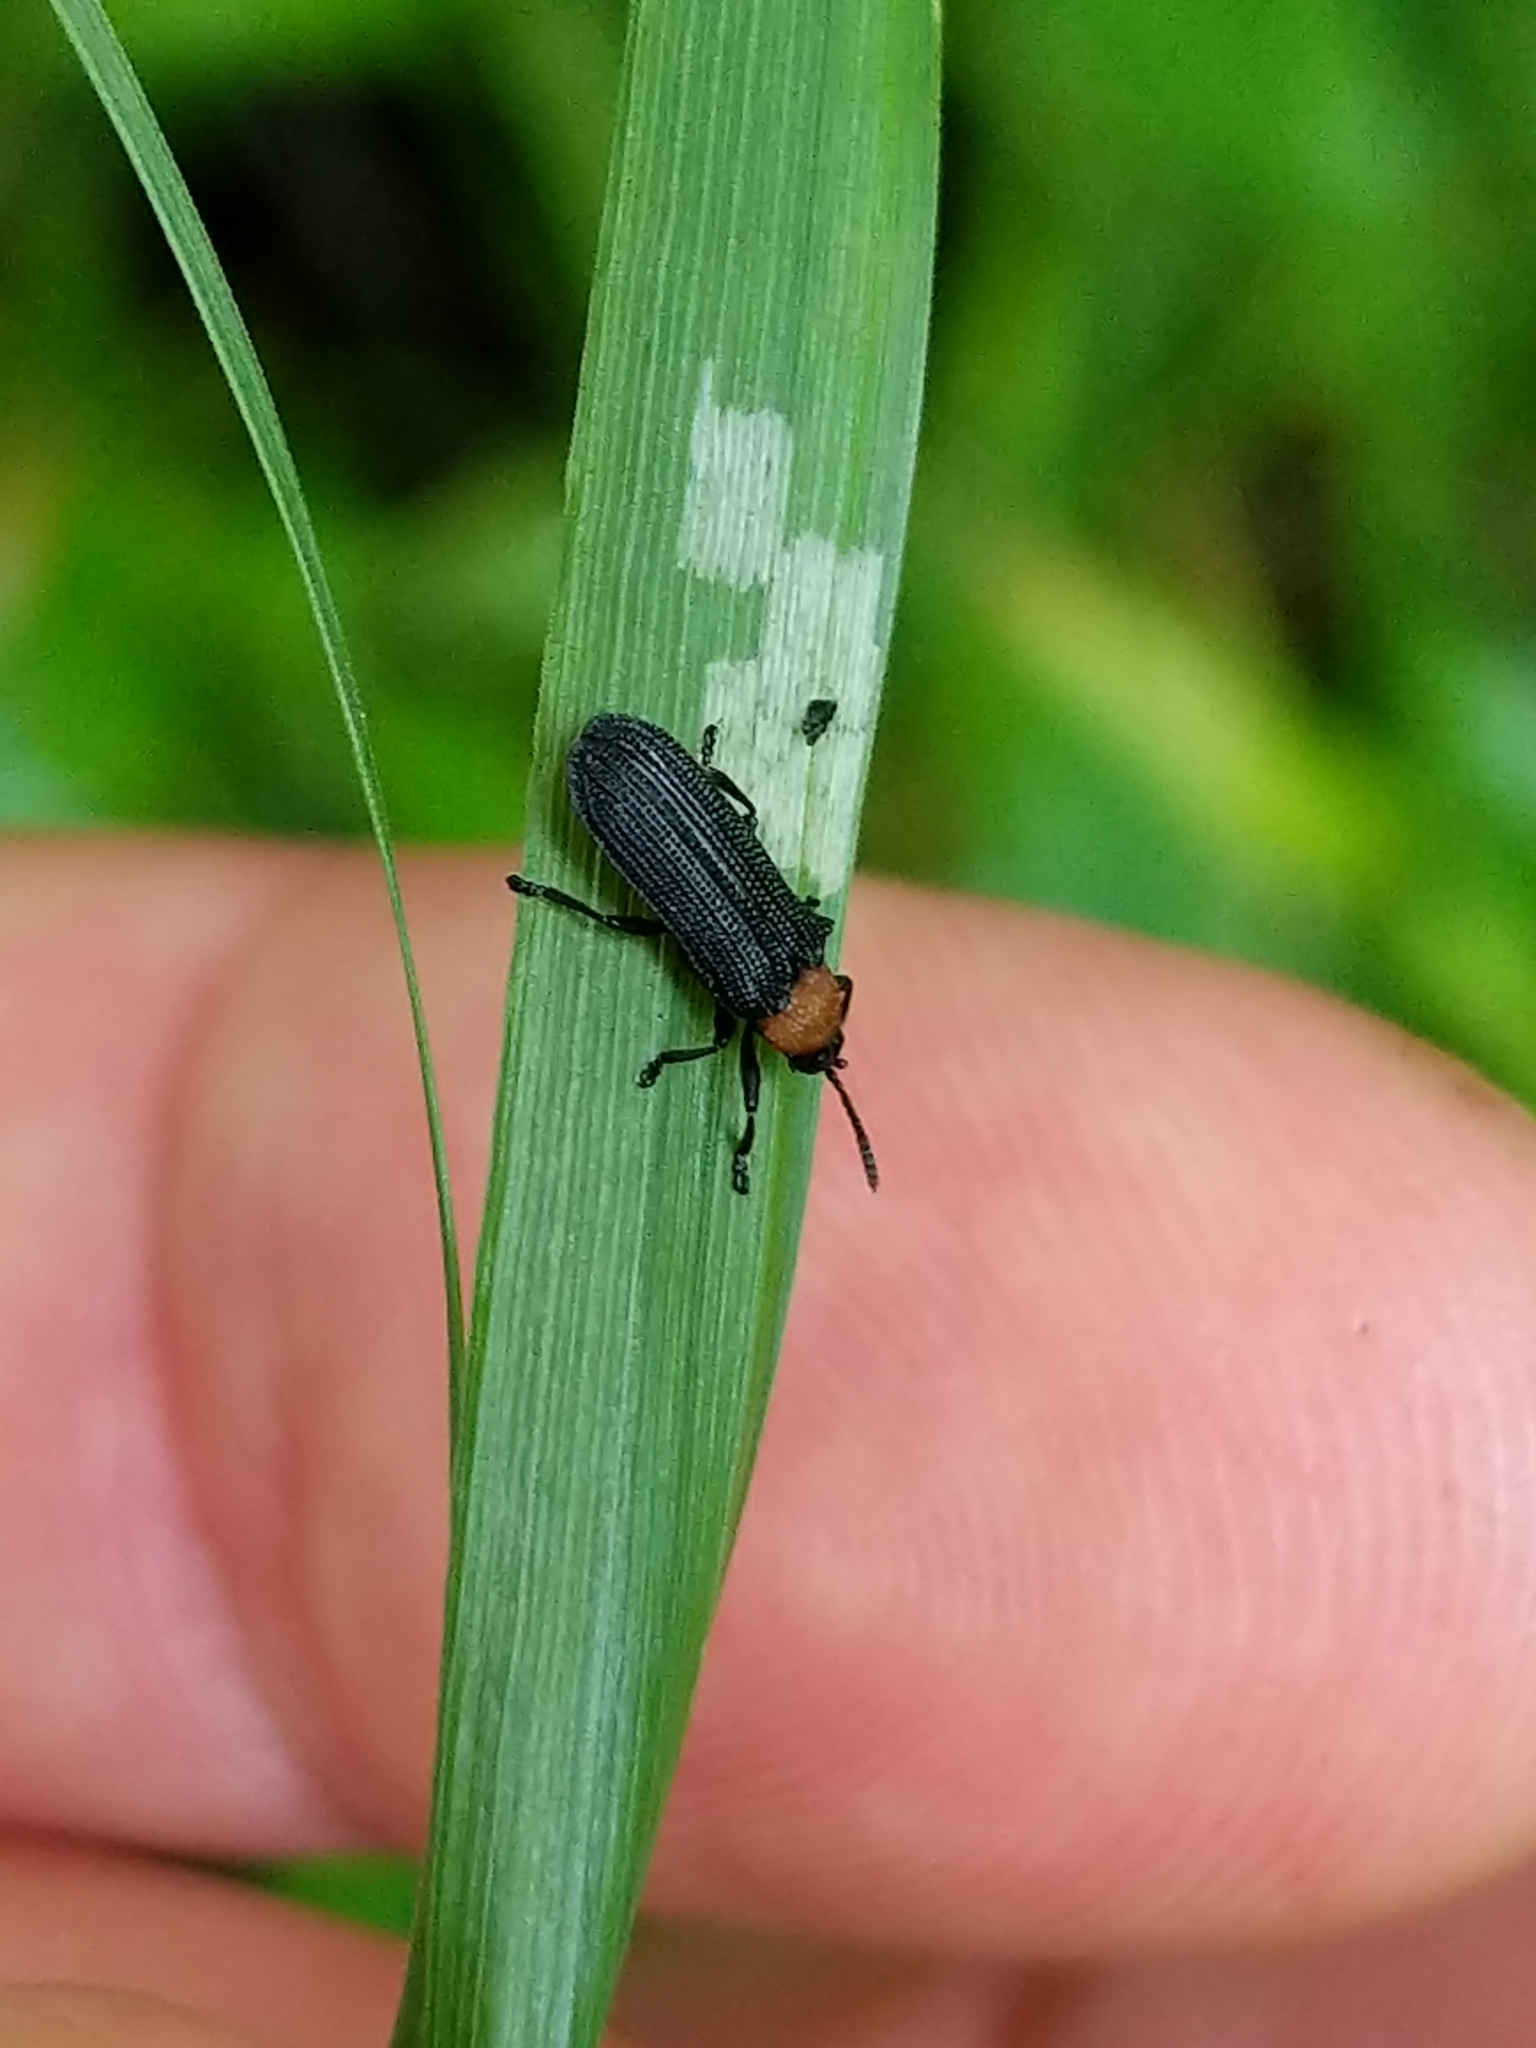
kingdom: Animalia
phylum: Arthropoda
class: Insecta
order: Coleoptera
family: Chrysomelidae
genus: Chalepus
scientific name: Chalepus walshii
